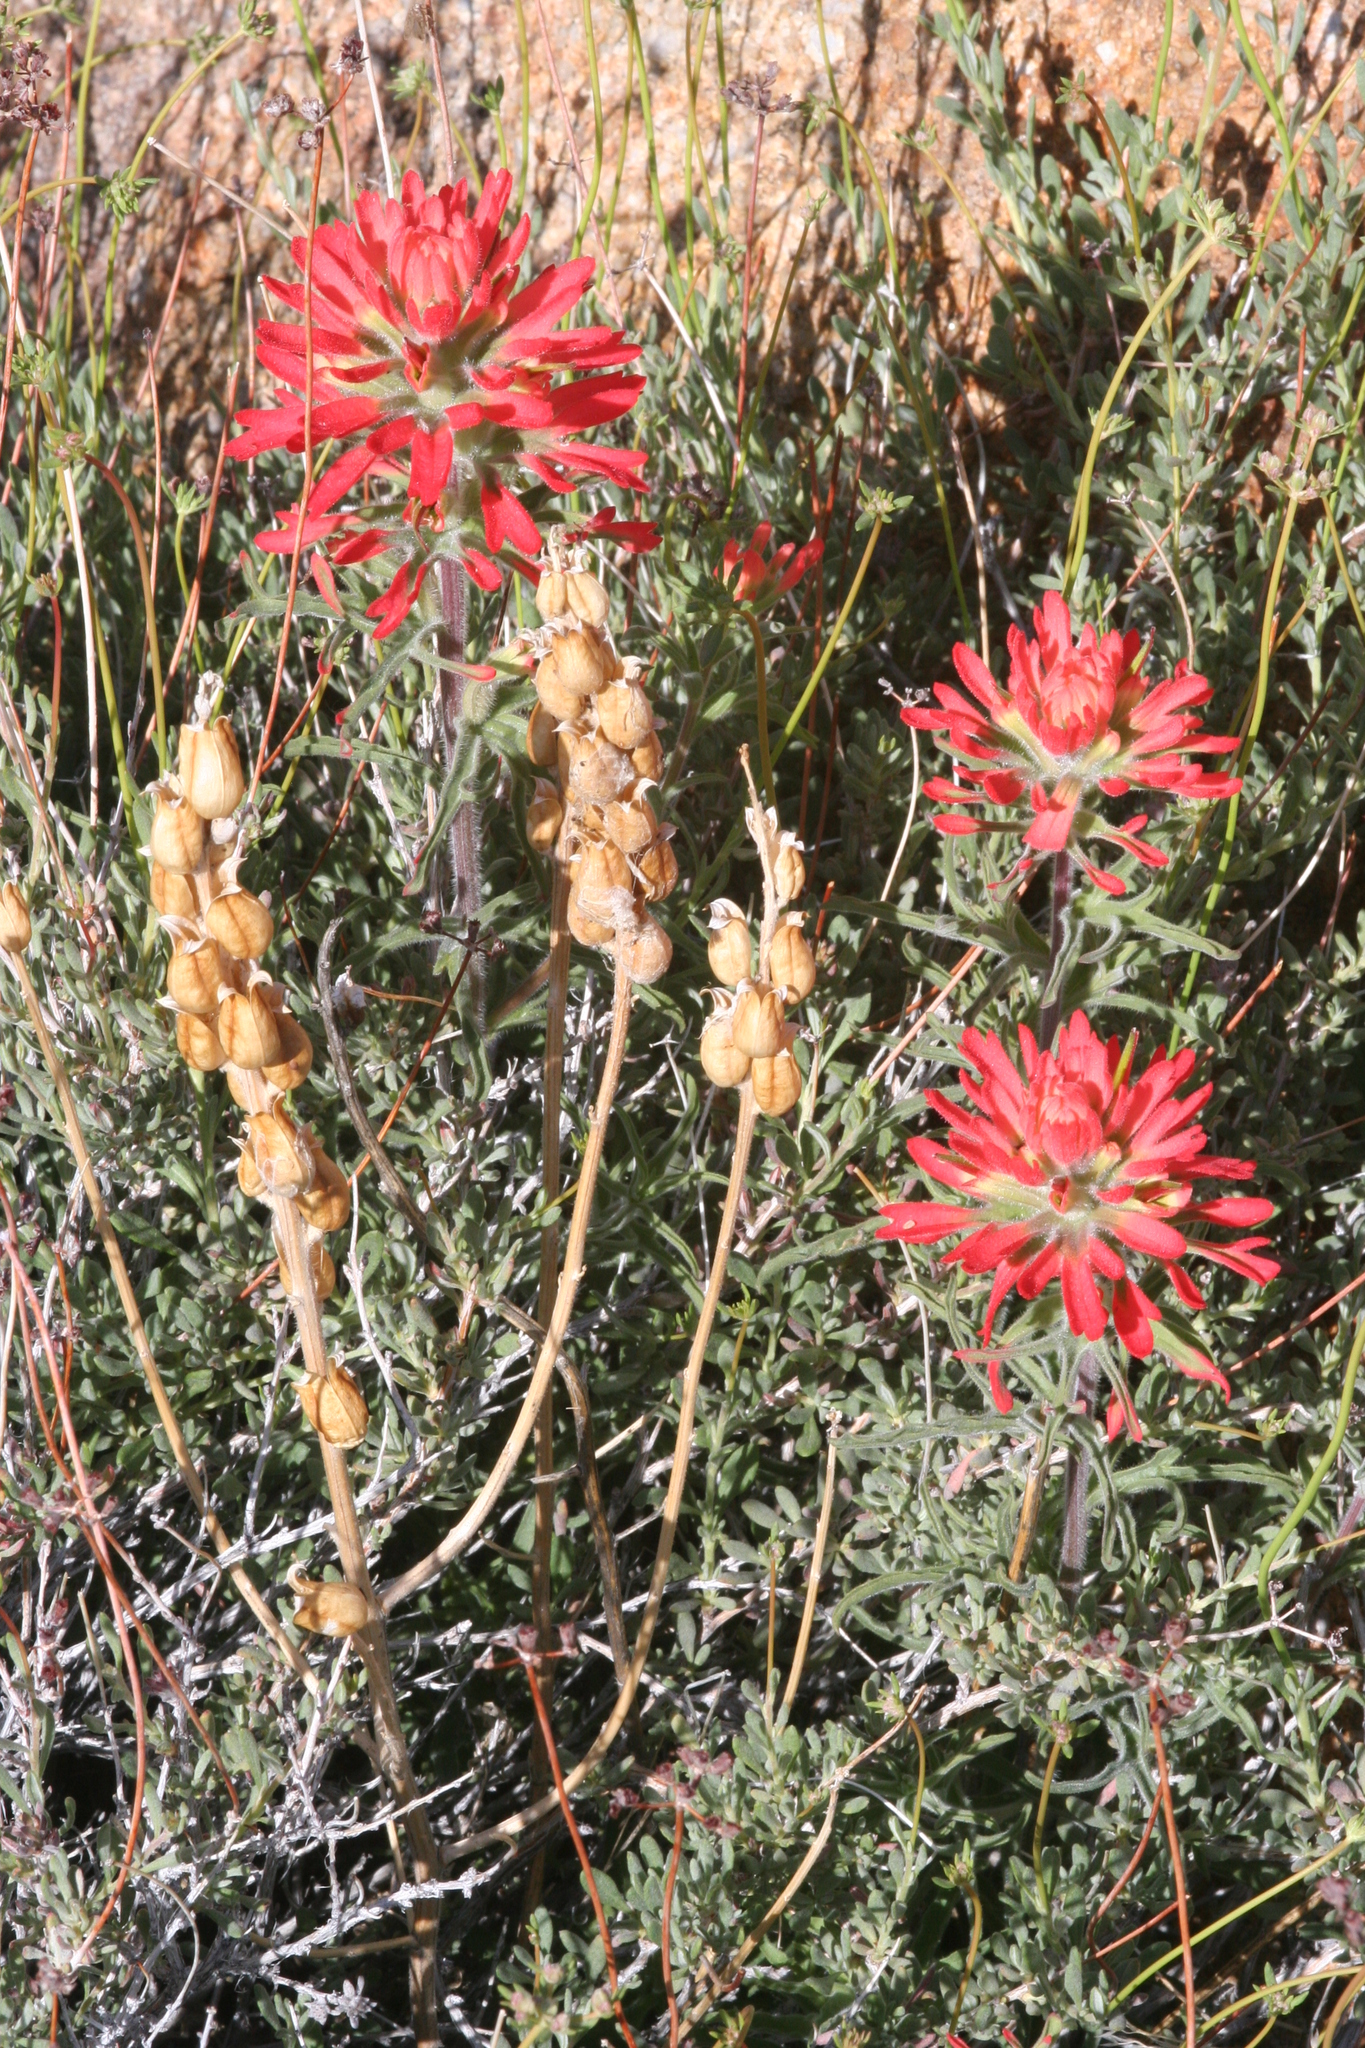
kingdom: Plantae
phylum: Tracheophyta
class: Magnoliopsida
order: Lamiales
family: Orobanchaceae
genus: Castilleja
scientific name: Castilleja chromosa
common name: Desert paintbrush
